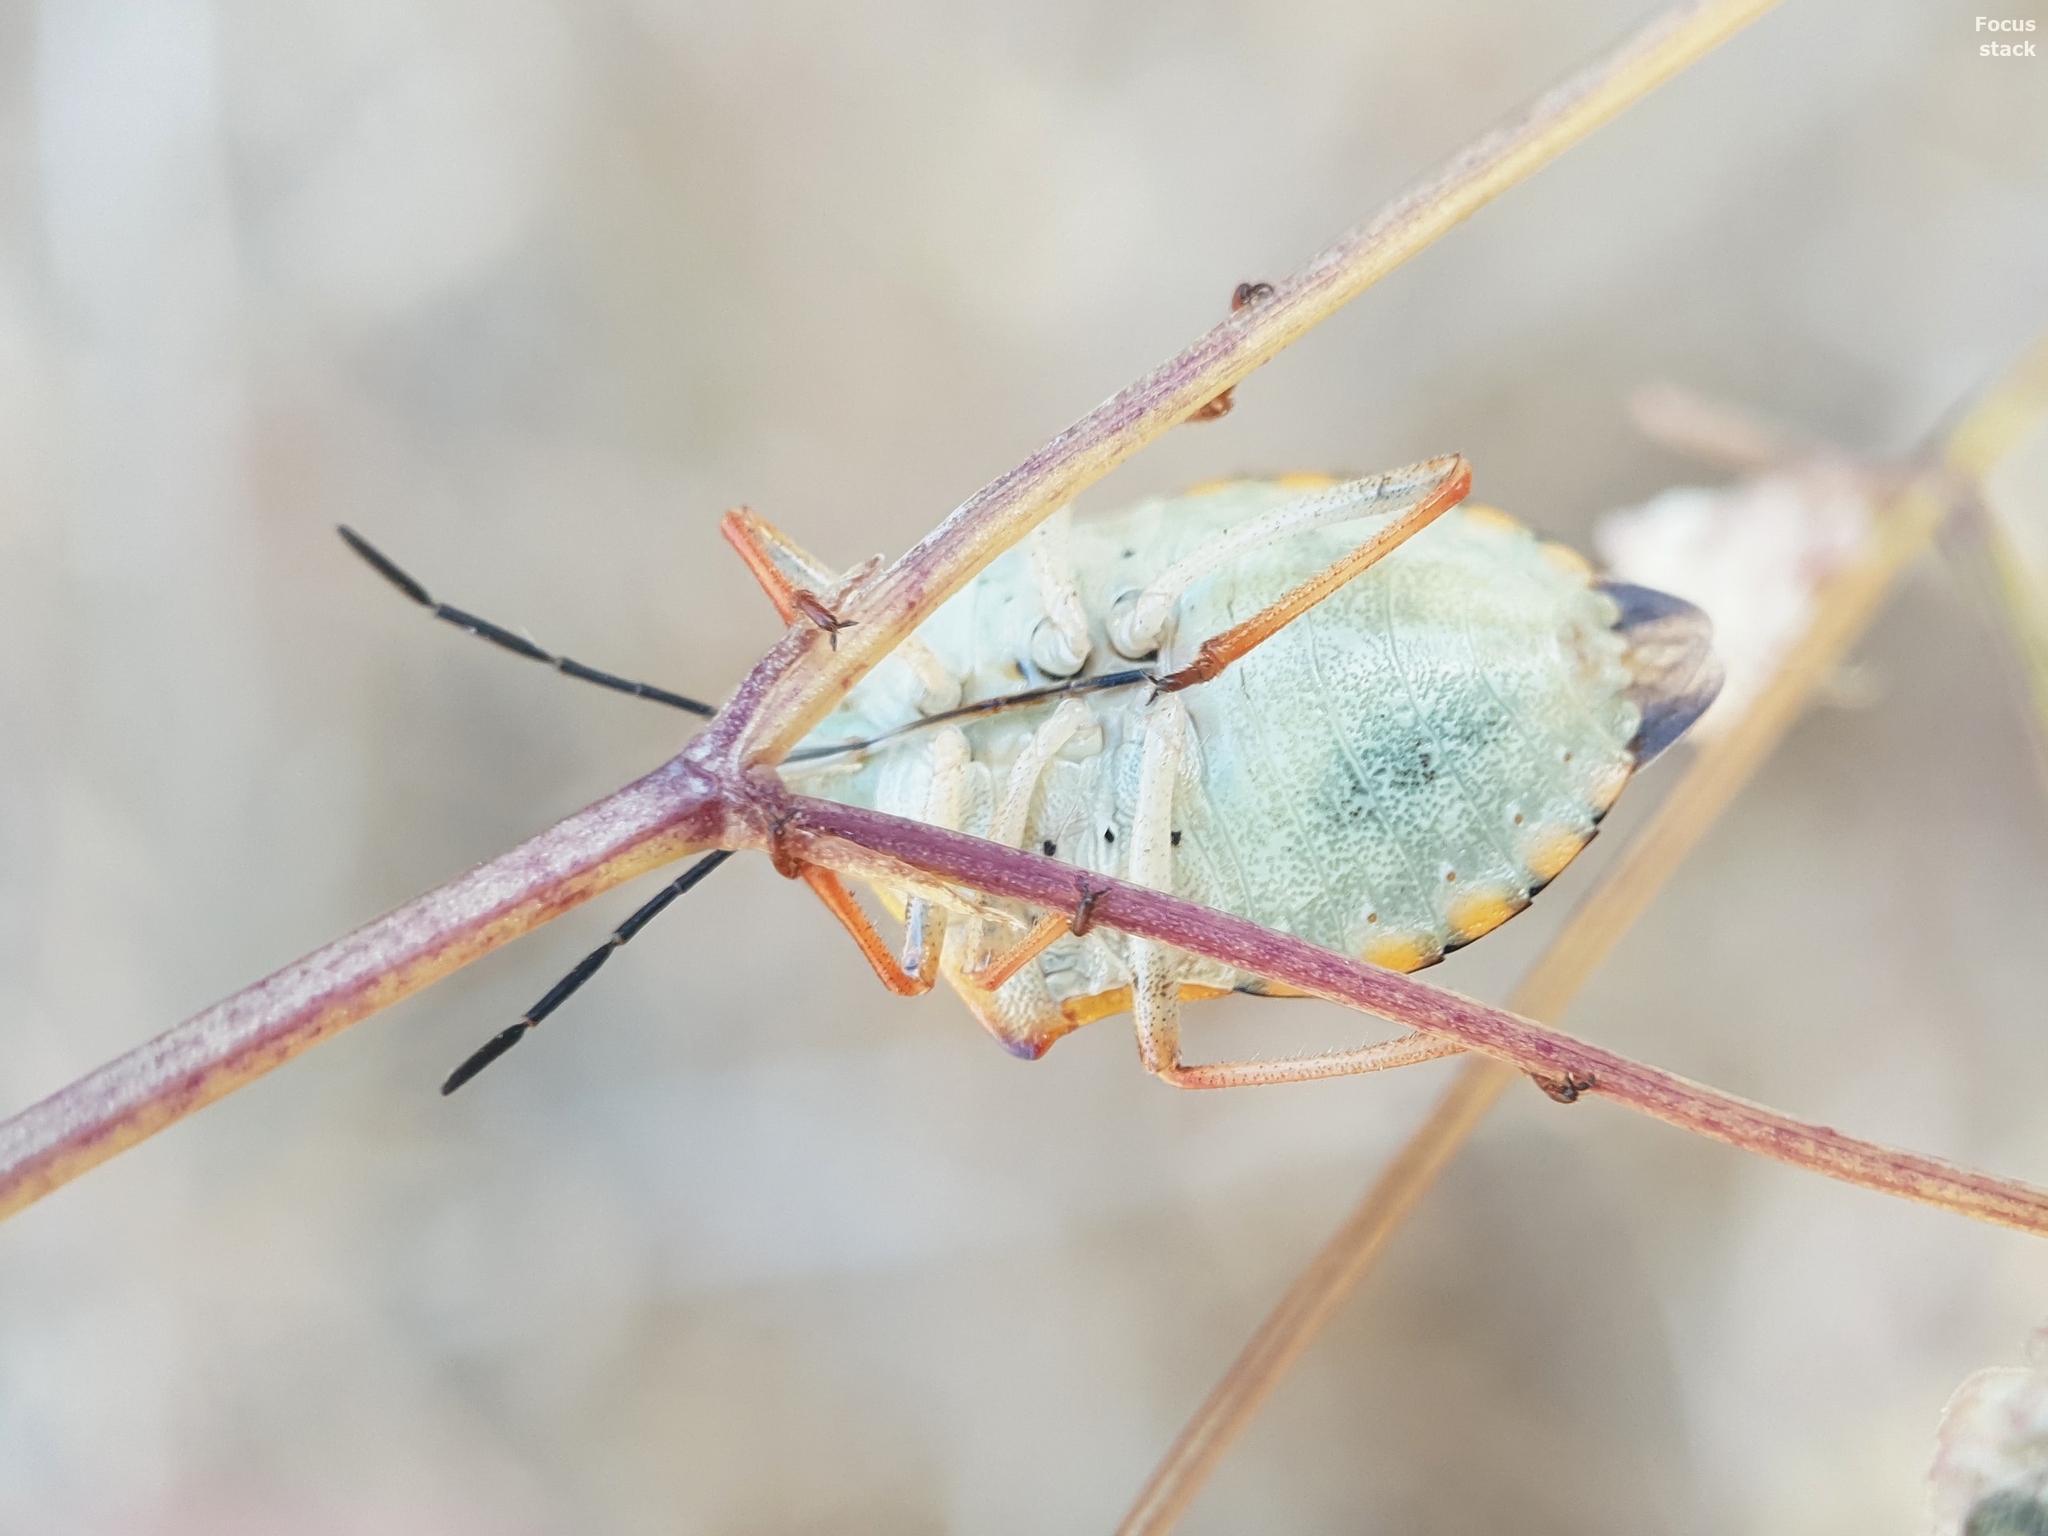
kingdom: Animalia
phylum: Arthropoda
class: Insecta
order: Hemiptera
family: Pentatomidae
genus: Carpocoris
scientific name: Carpocoris mediterraneus
